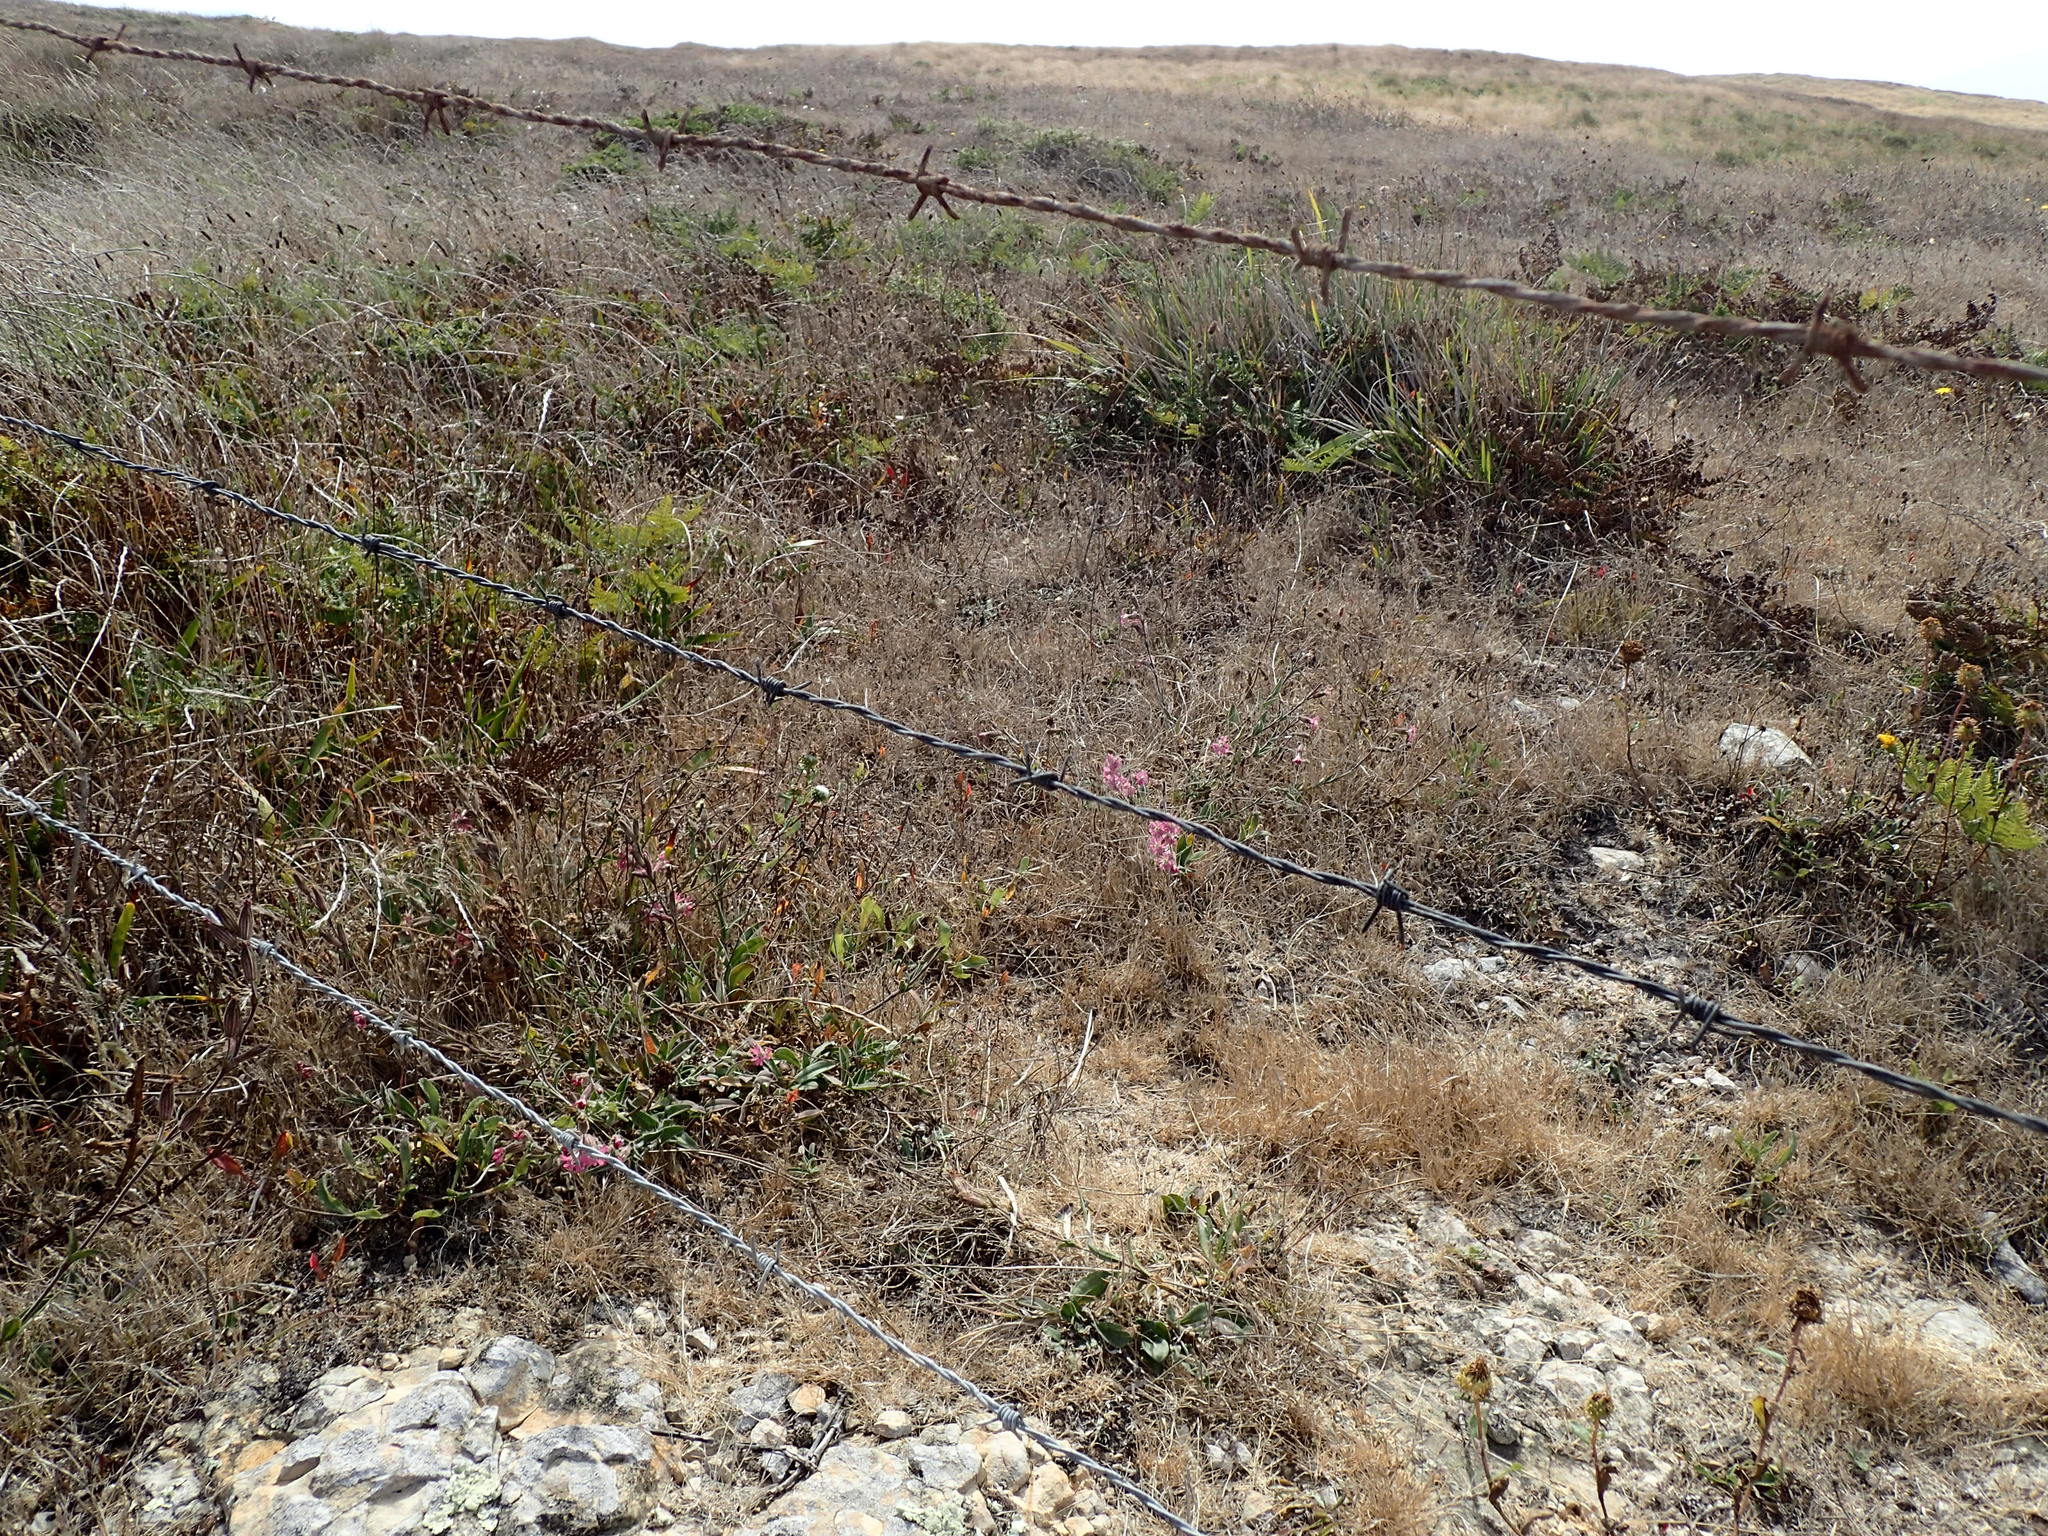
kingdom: Plantae
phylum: Tracheophyta
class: Magnoliopsida
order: Caryophyllales
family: Caryophyllaceae
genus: Silene
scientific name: Silene scouleri
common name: Scouler's campion
